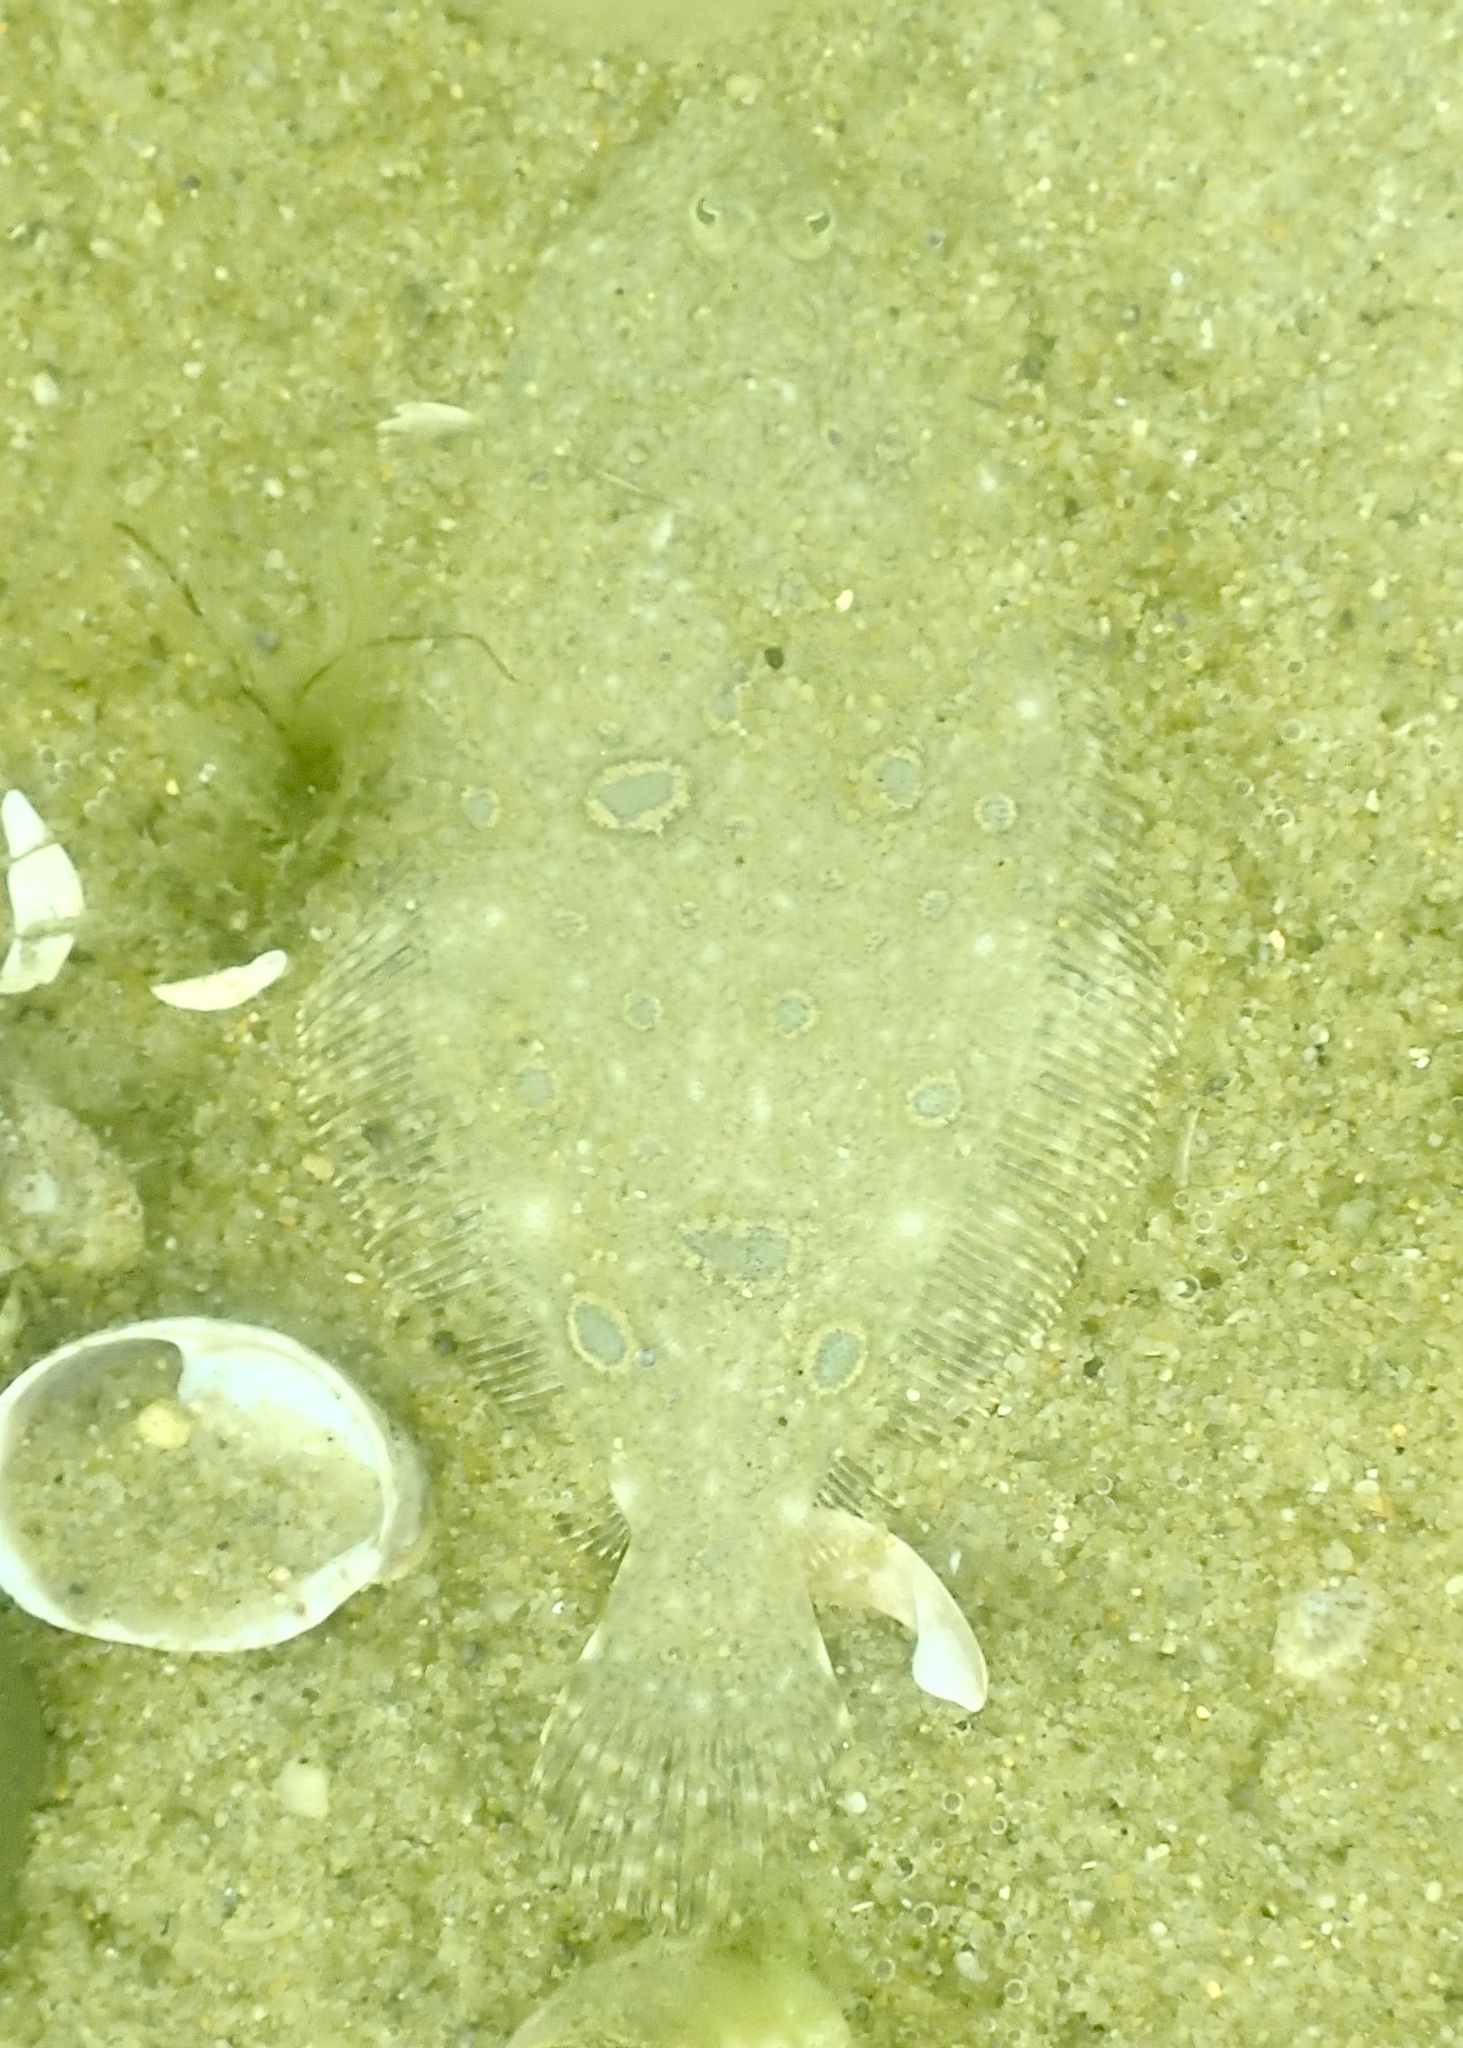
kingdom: Animalia
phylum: Chordata
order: Pleuronectiformes
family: Paralichthyidae
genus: Paralichthys
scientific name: Paralichthys dentatus
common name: Summer flounder
